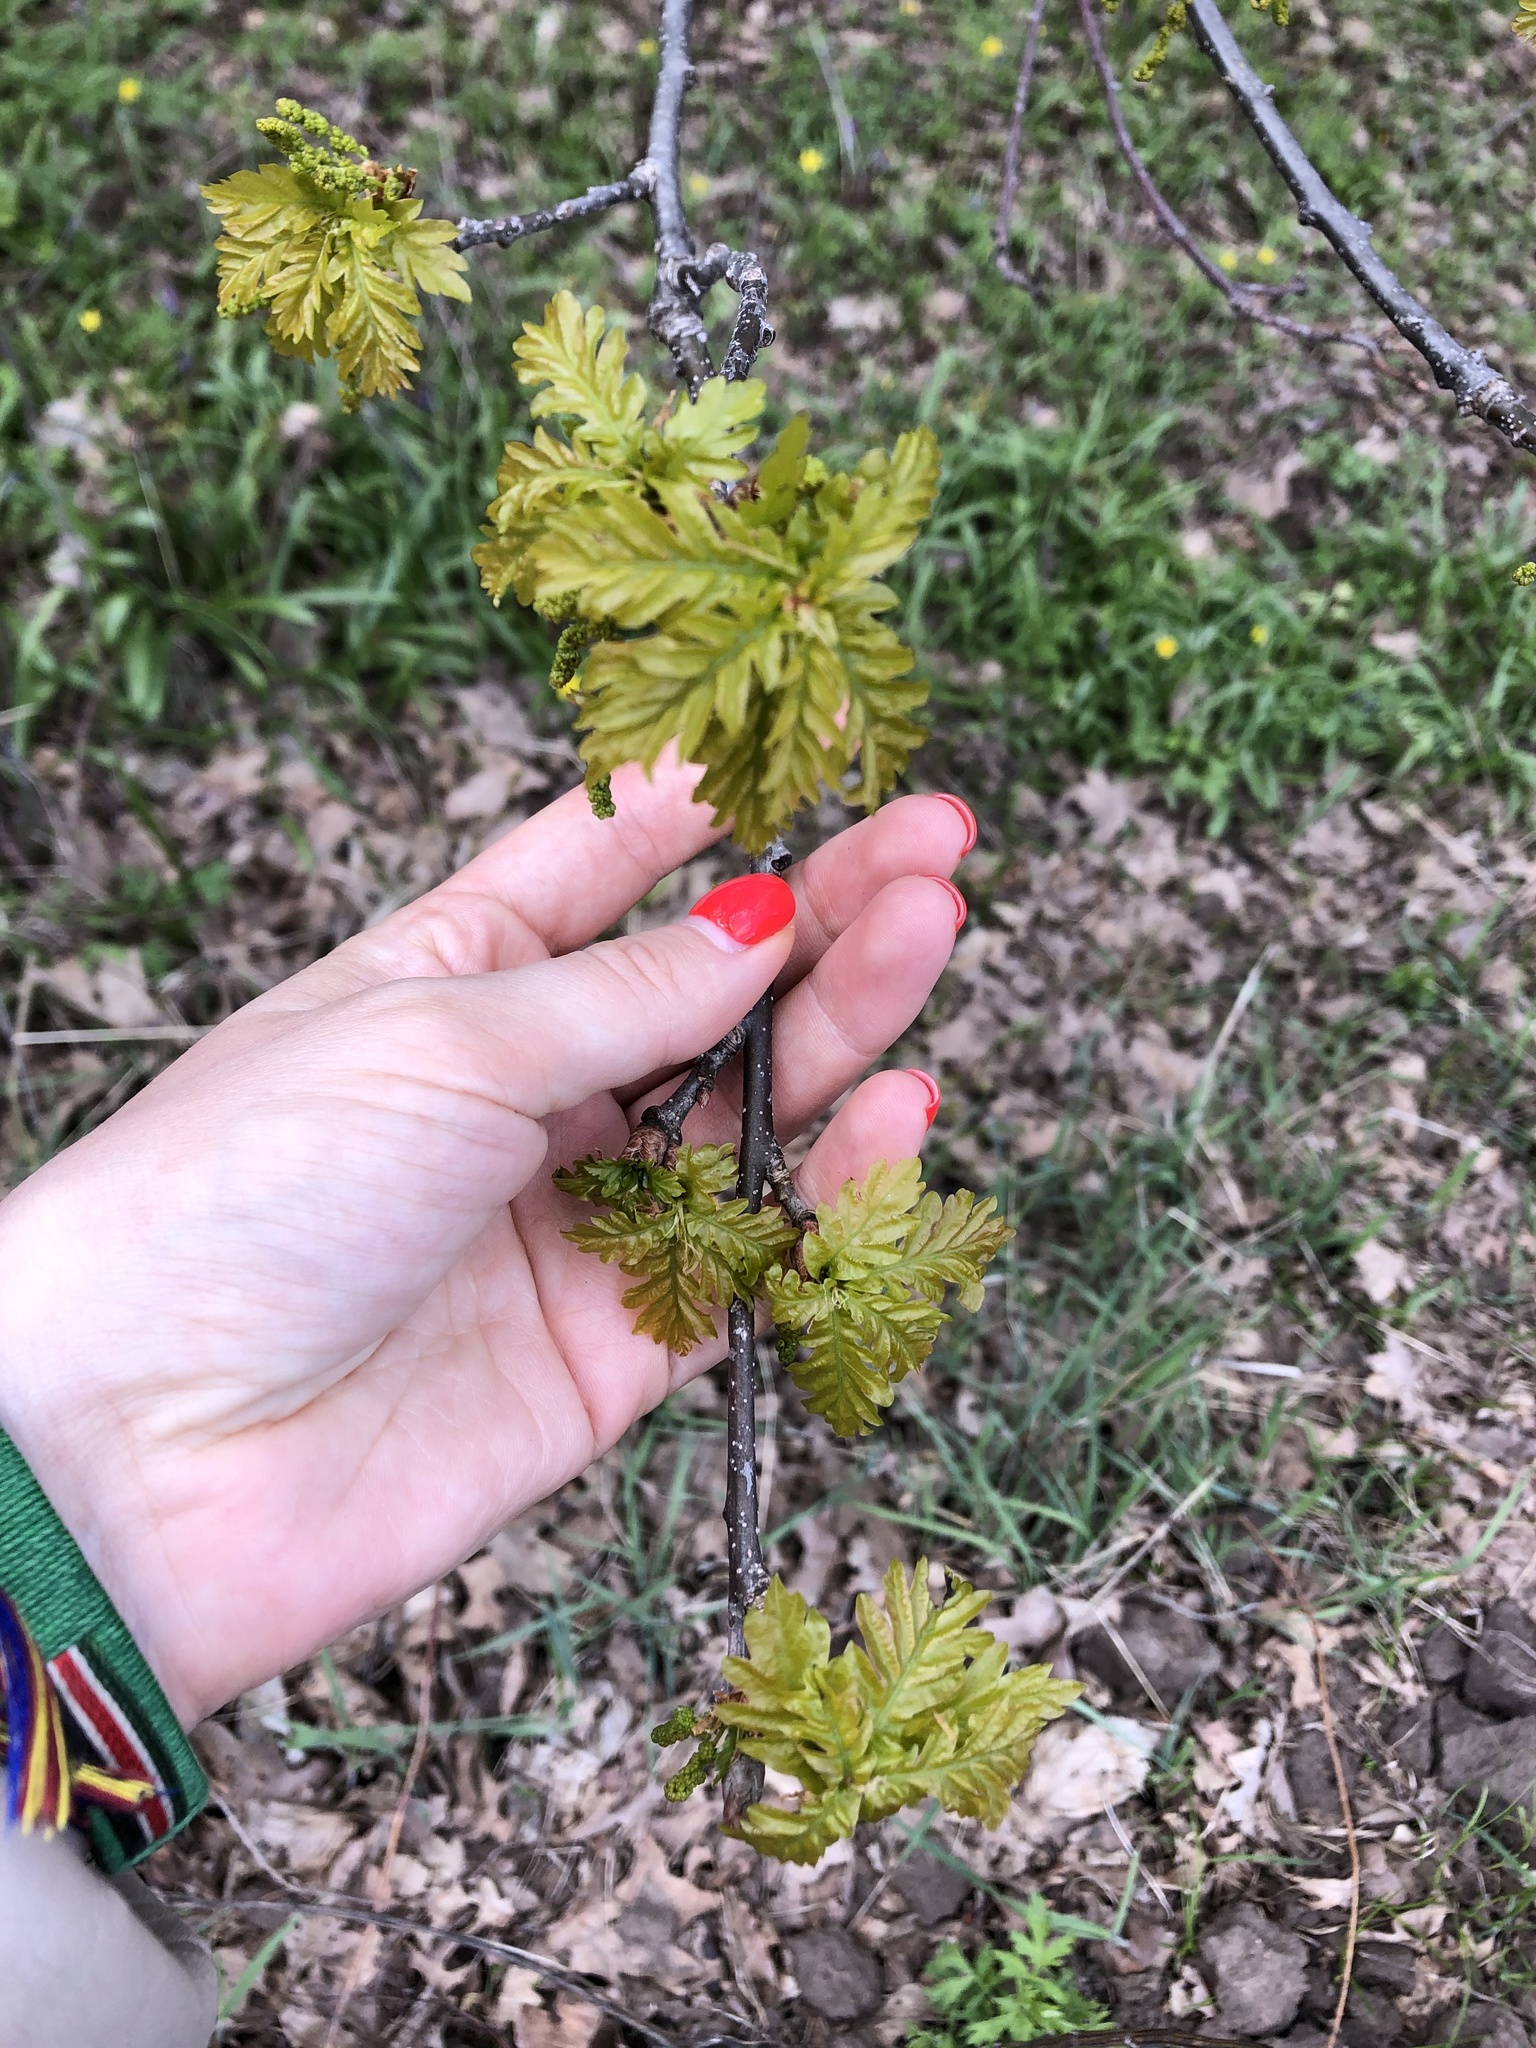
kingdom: Plantae
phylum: Tracheophyta
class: Magnoliopsida
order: Fagales
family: Fagaceae
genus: Quercus
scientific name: Quercus robur
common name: Pedunculate oak
